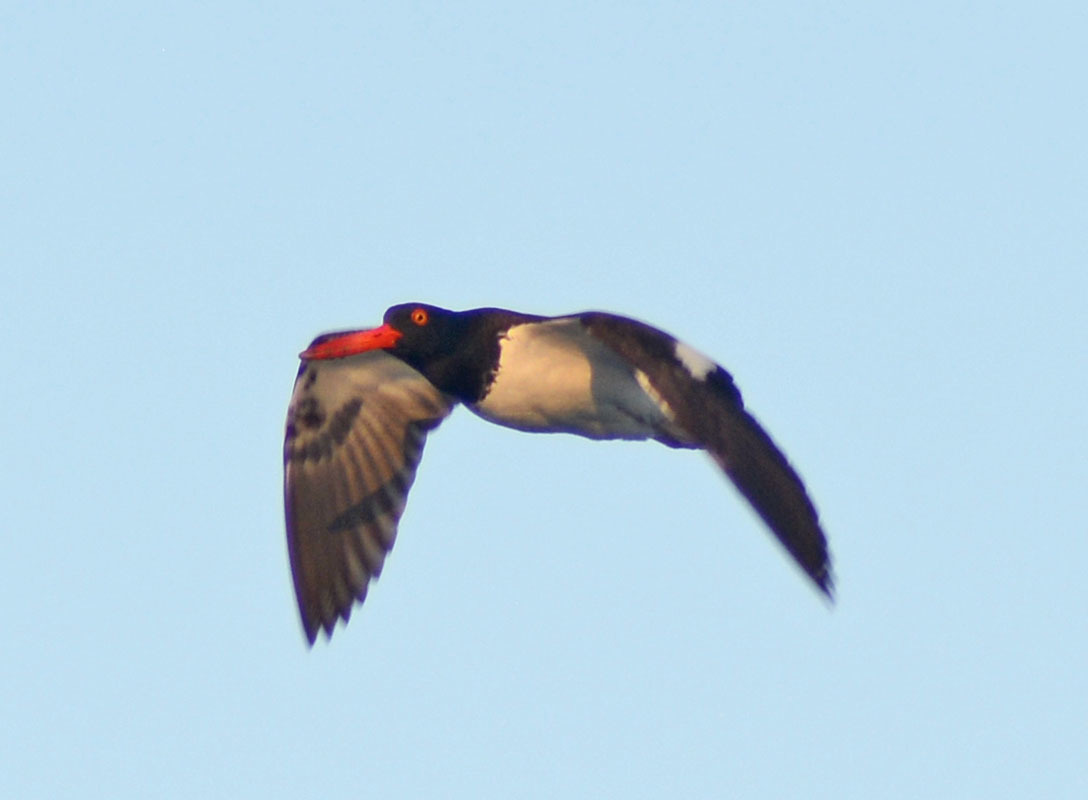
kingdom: Animalia
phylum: Chordata
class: Aves
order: Charadriiformes
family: Haematopodidae
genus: Haematopus
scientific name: Haematopus palliatus
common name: American oystercatcher
